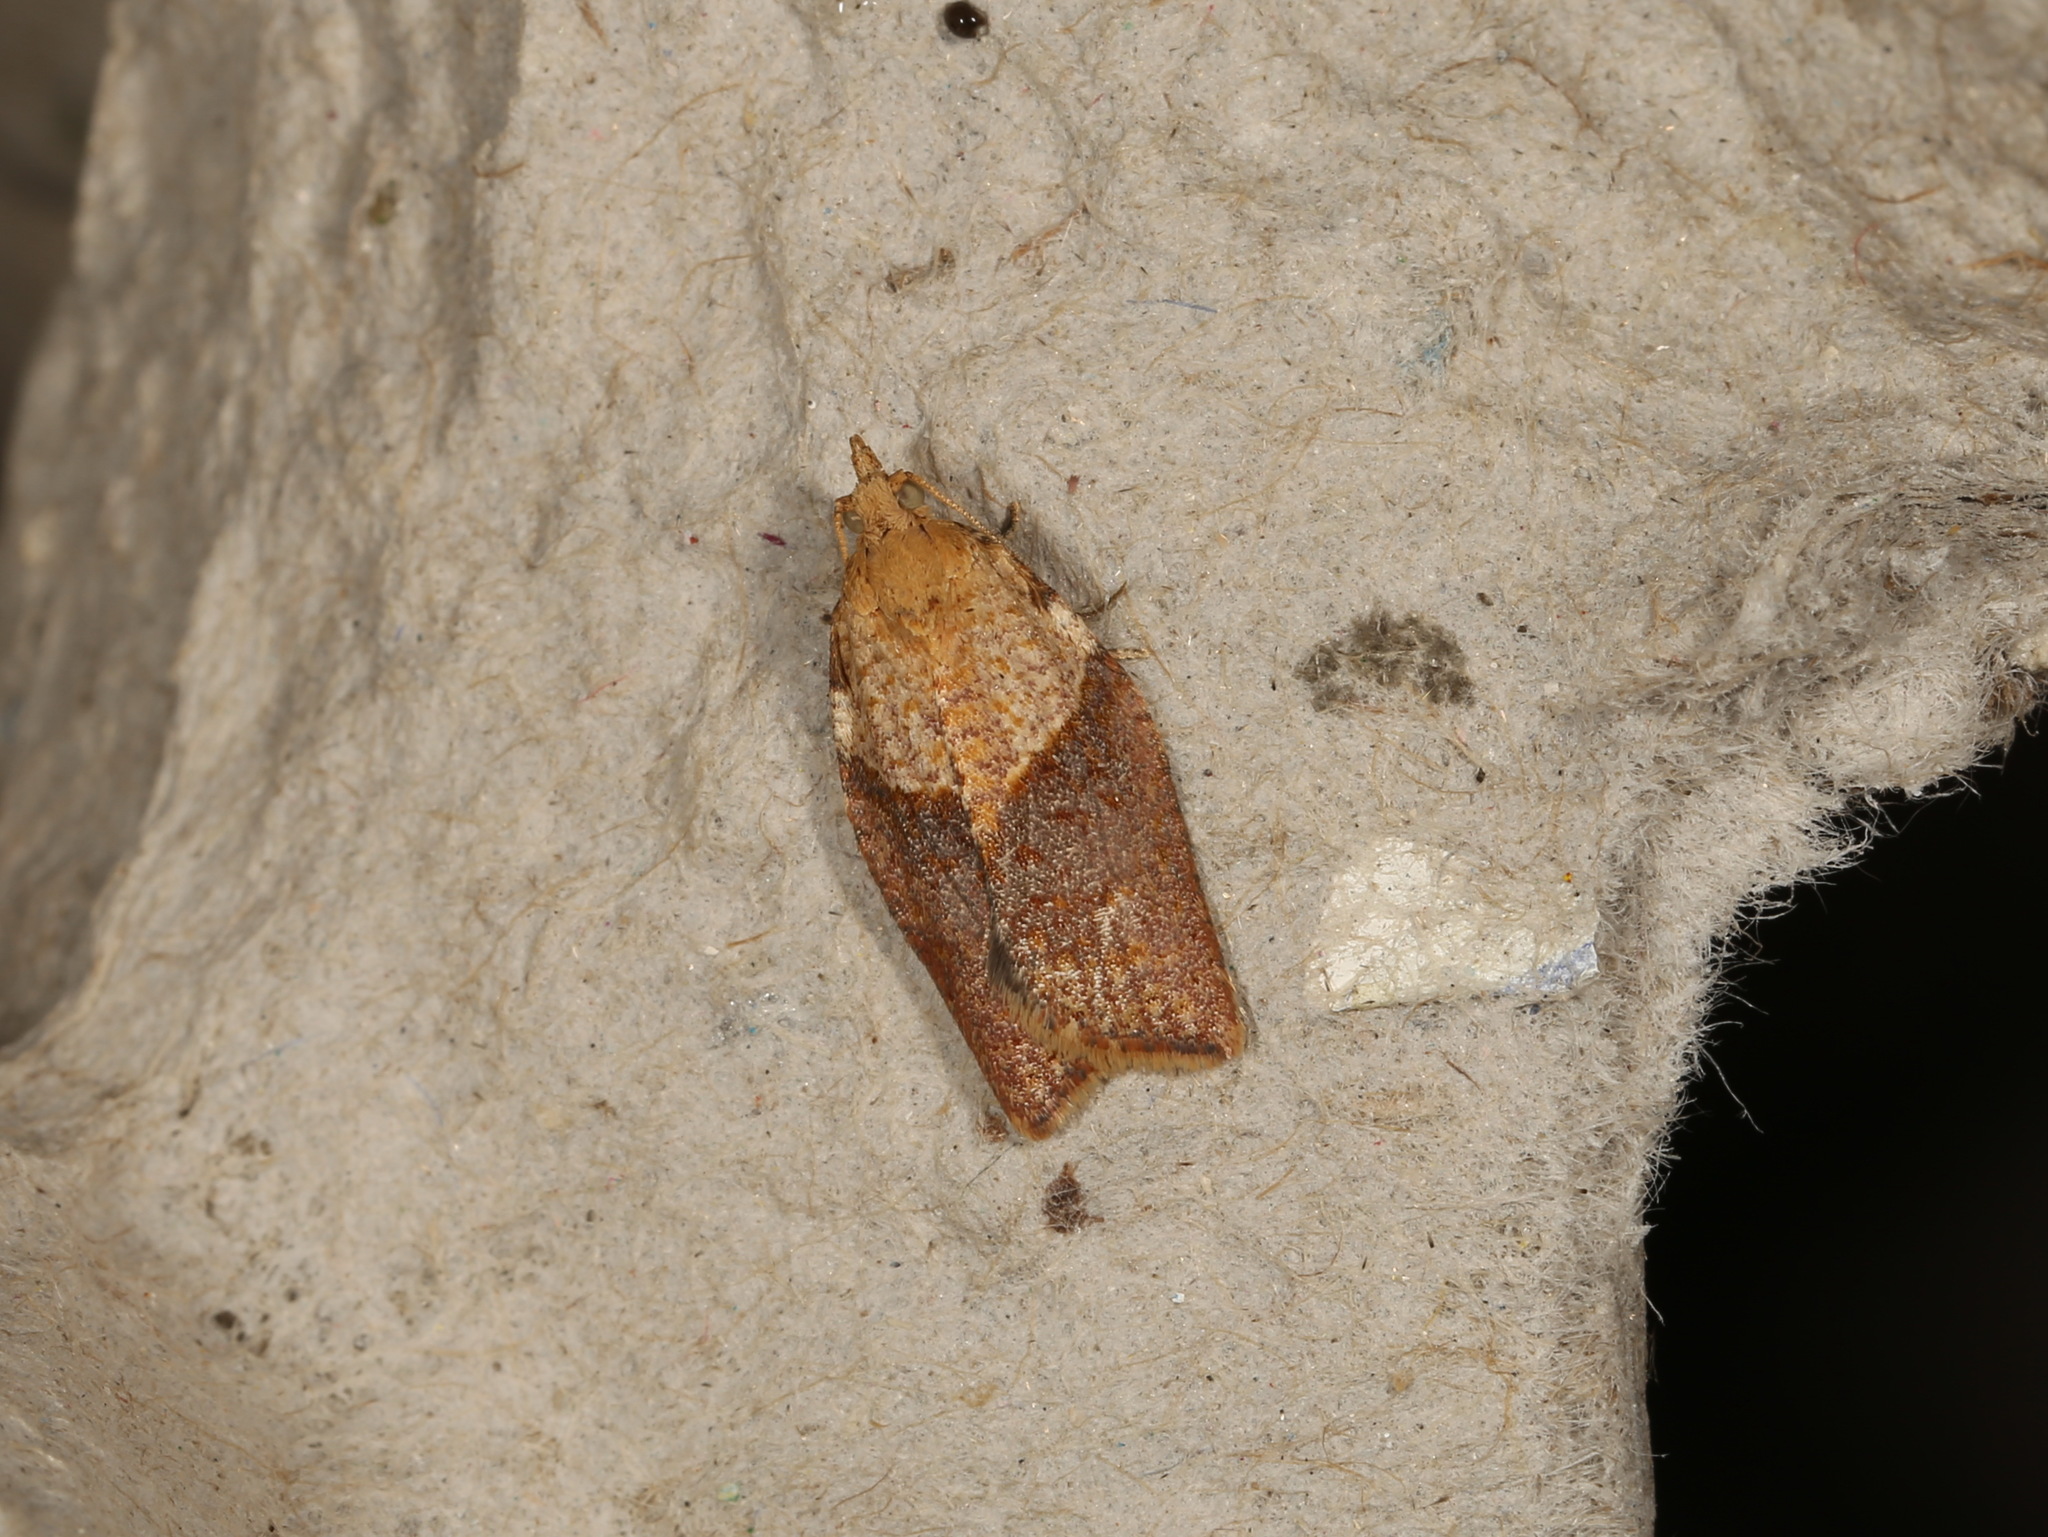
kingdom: Animalia
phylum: Arthropoda
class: Insecta
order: Lepidoptera
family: Tortricidae
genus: Epiphyas
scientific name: Epiphyas postvittana
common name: Light brown apple moth
